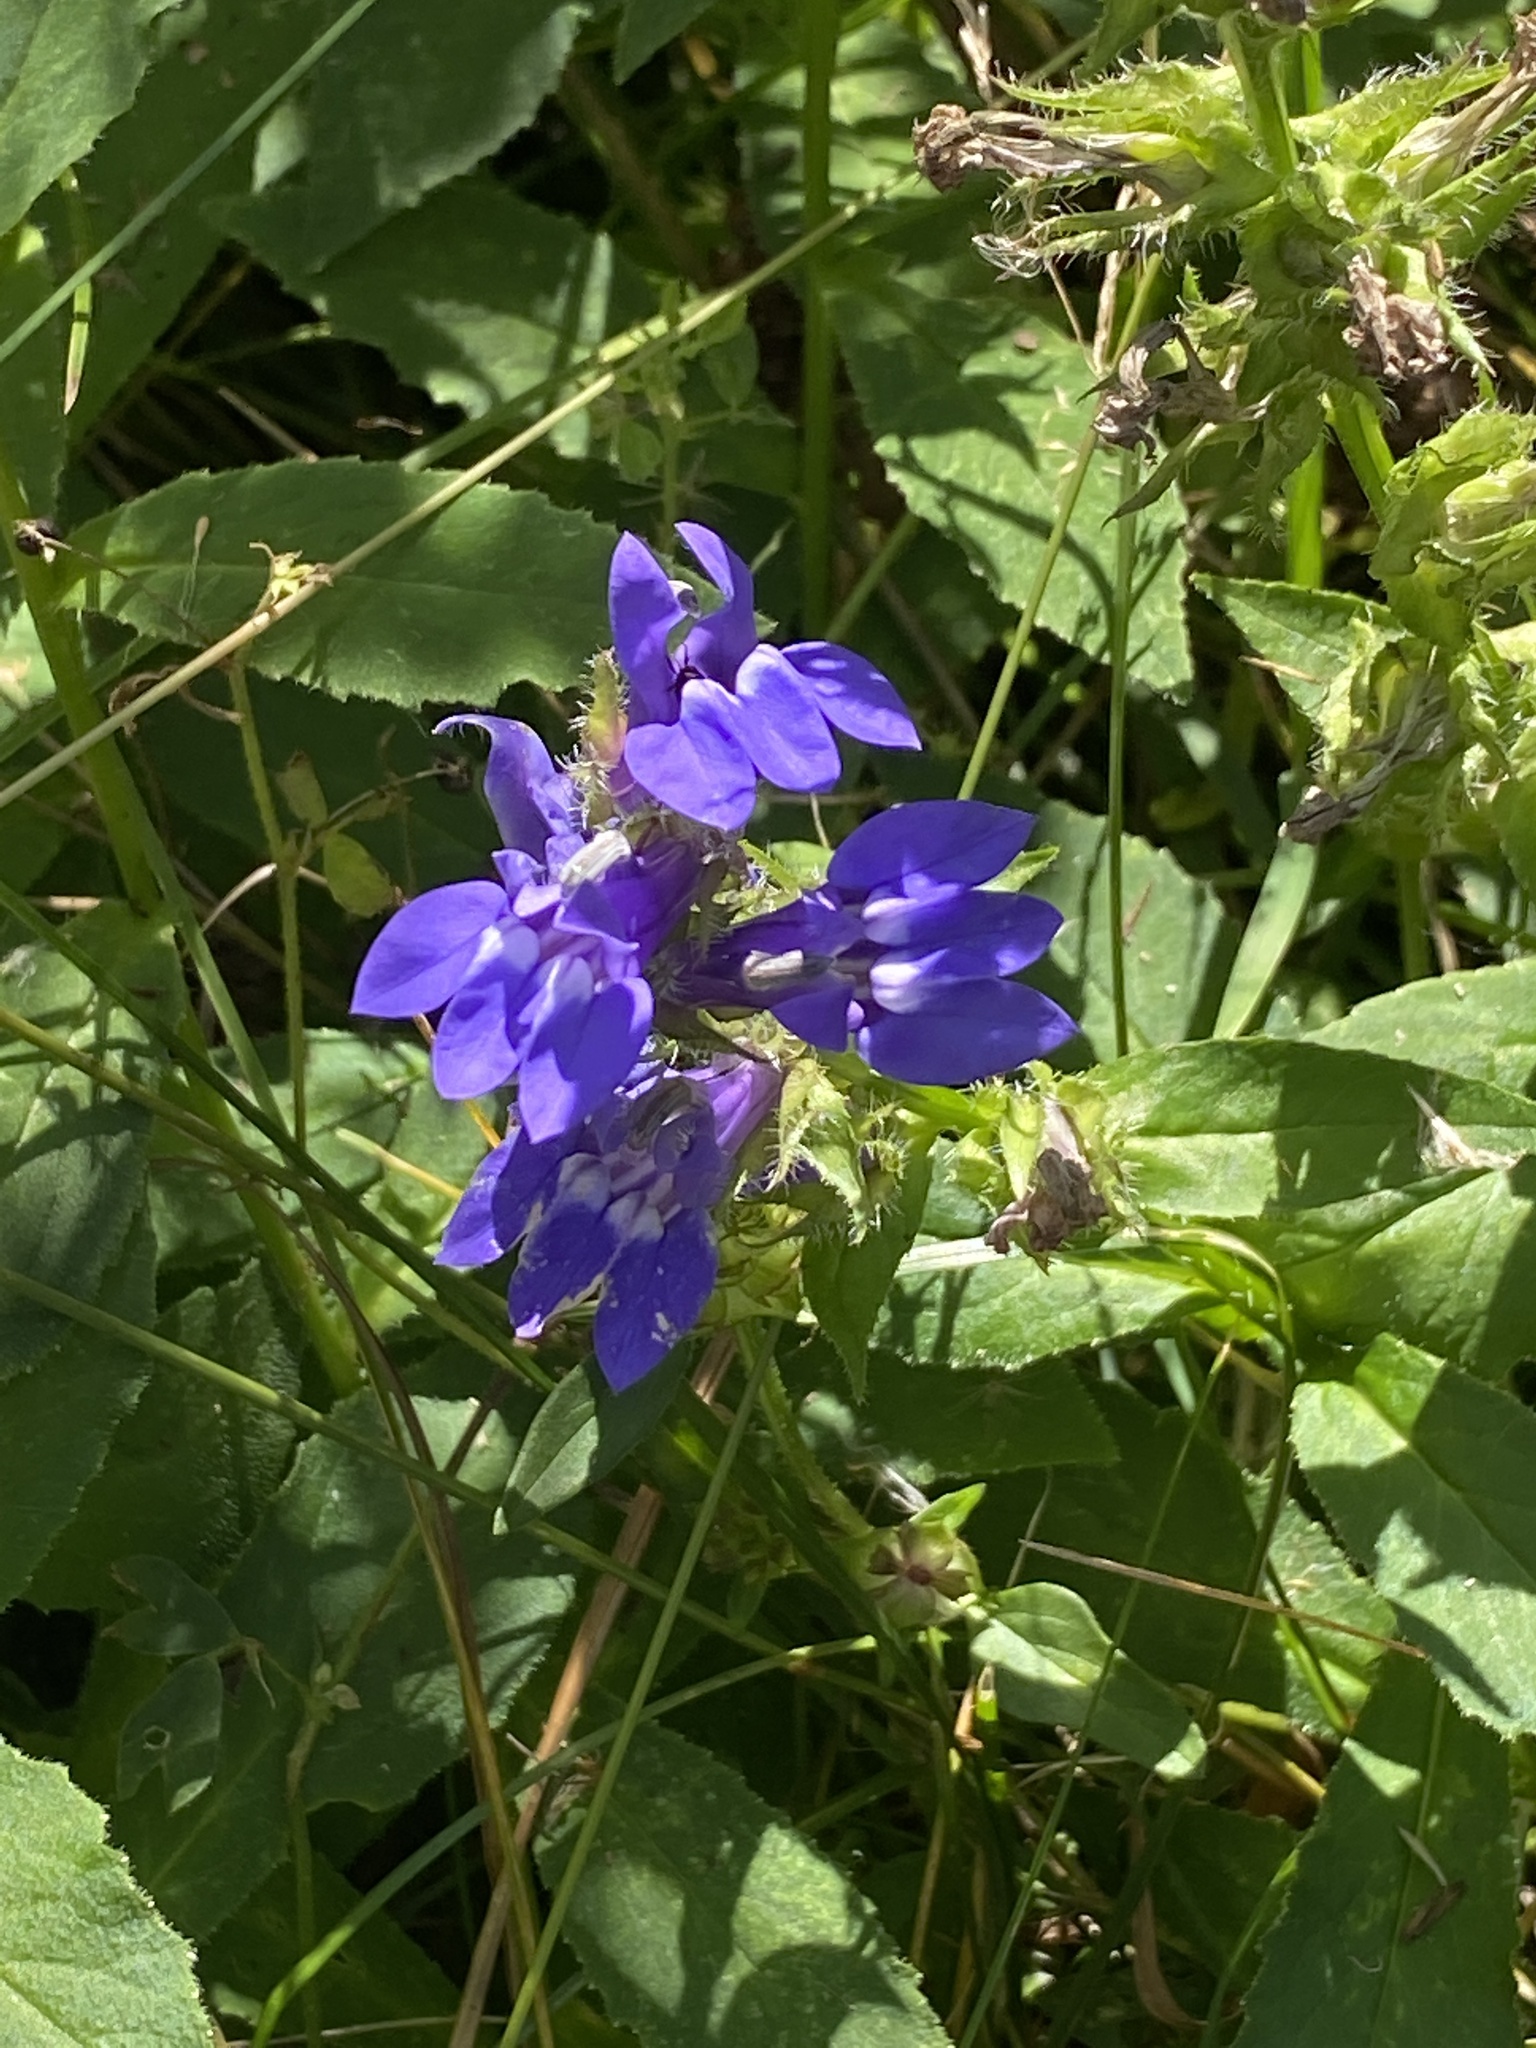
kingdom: Plantae
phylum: Tracheophyta
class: Magnoliopsida
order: Asterales
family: Campanulaceae
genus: Lobelia
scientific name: Lobelia siphilitica
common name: Great lobelia
